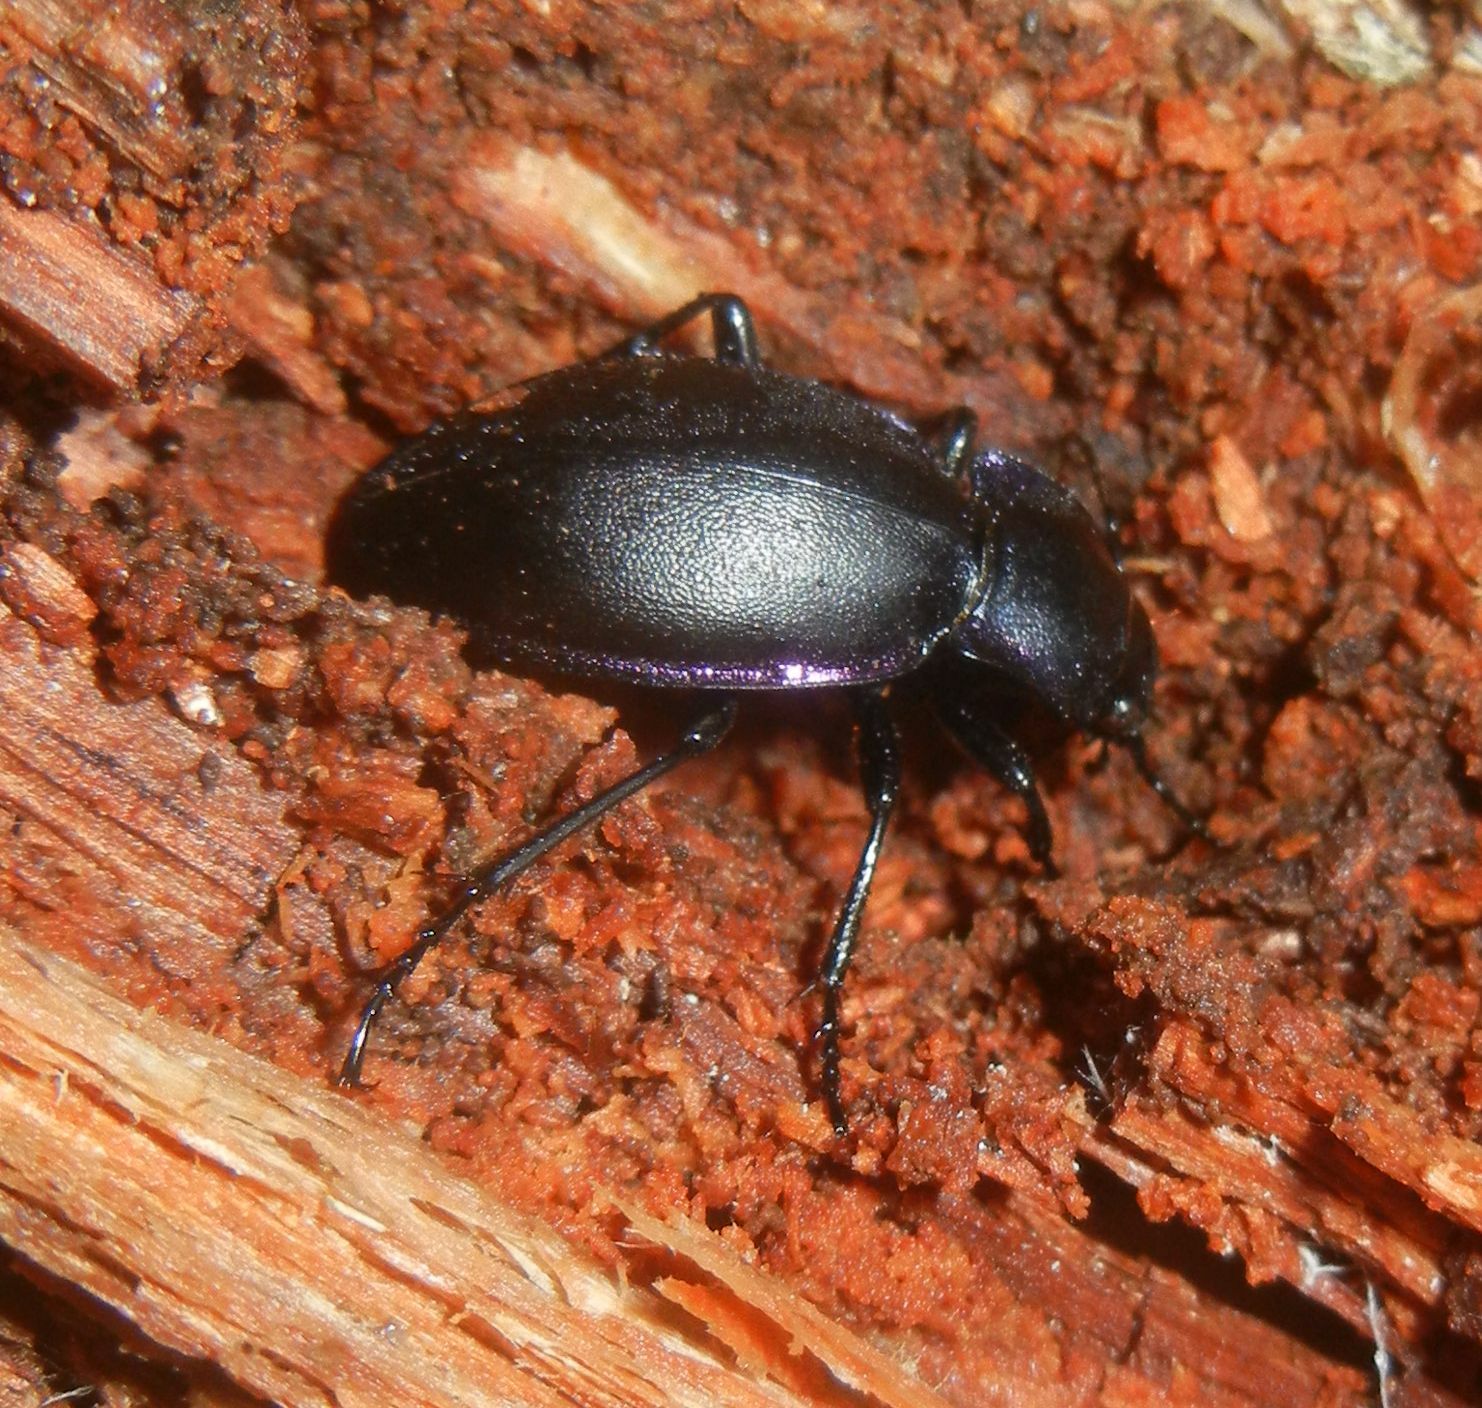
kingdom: Animalia
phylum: Arthropoda
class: Insecta
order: Coleoptera
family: Carabidae
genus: Carabus
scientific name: Carabus violaceus
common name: Violet ground beetle
